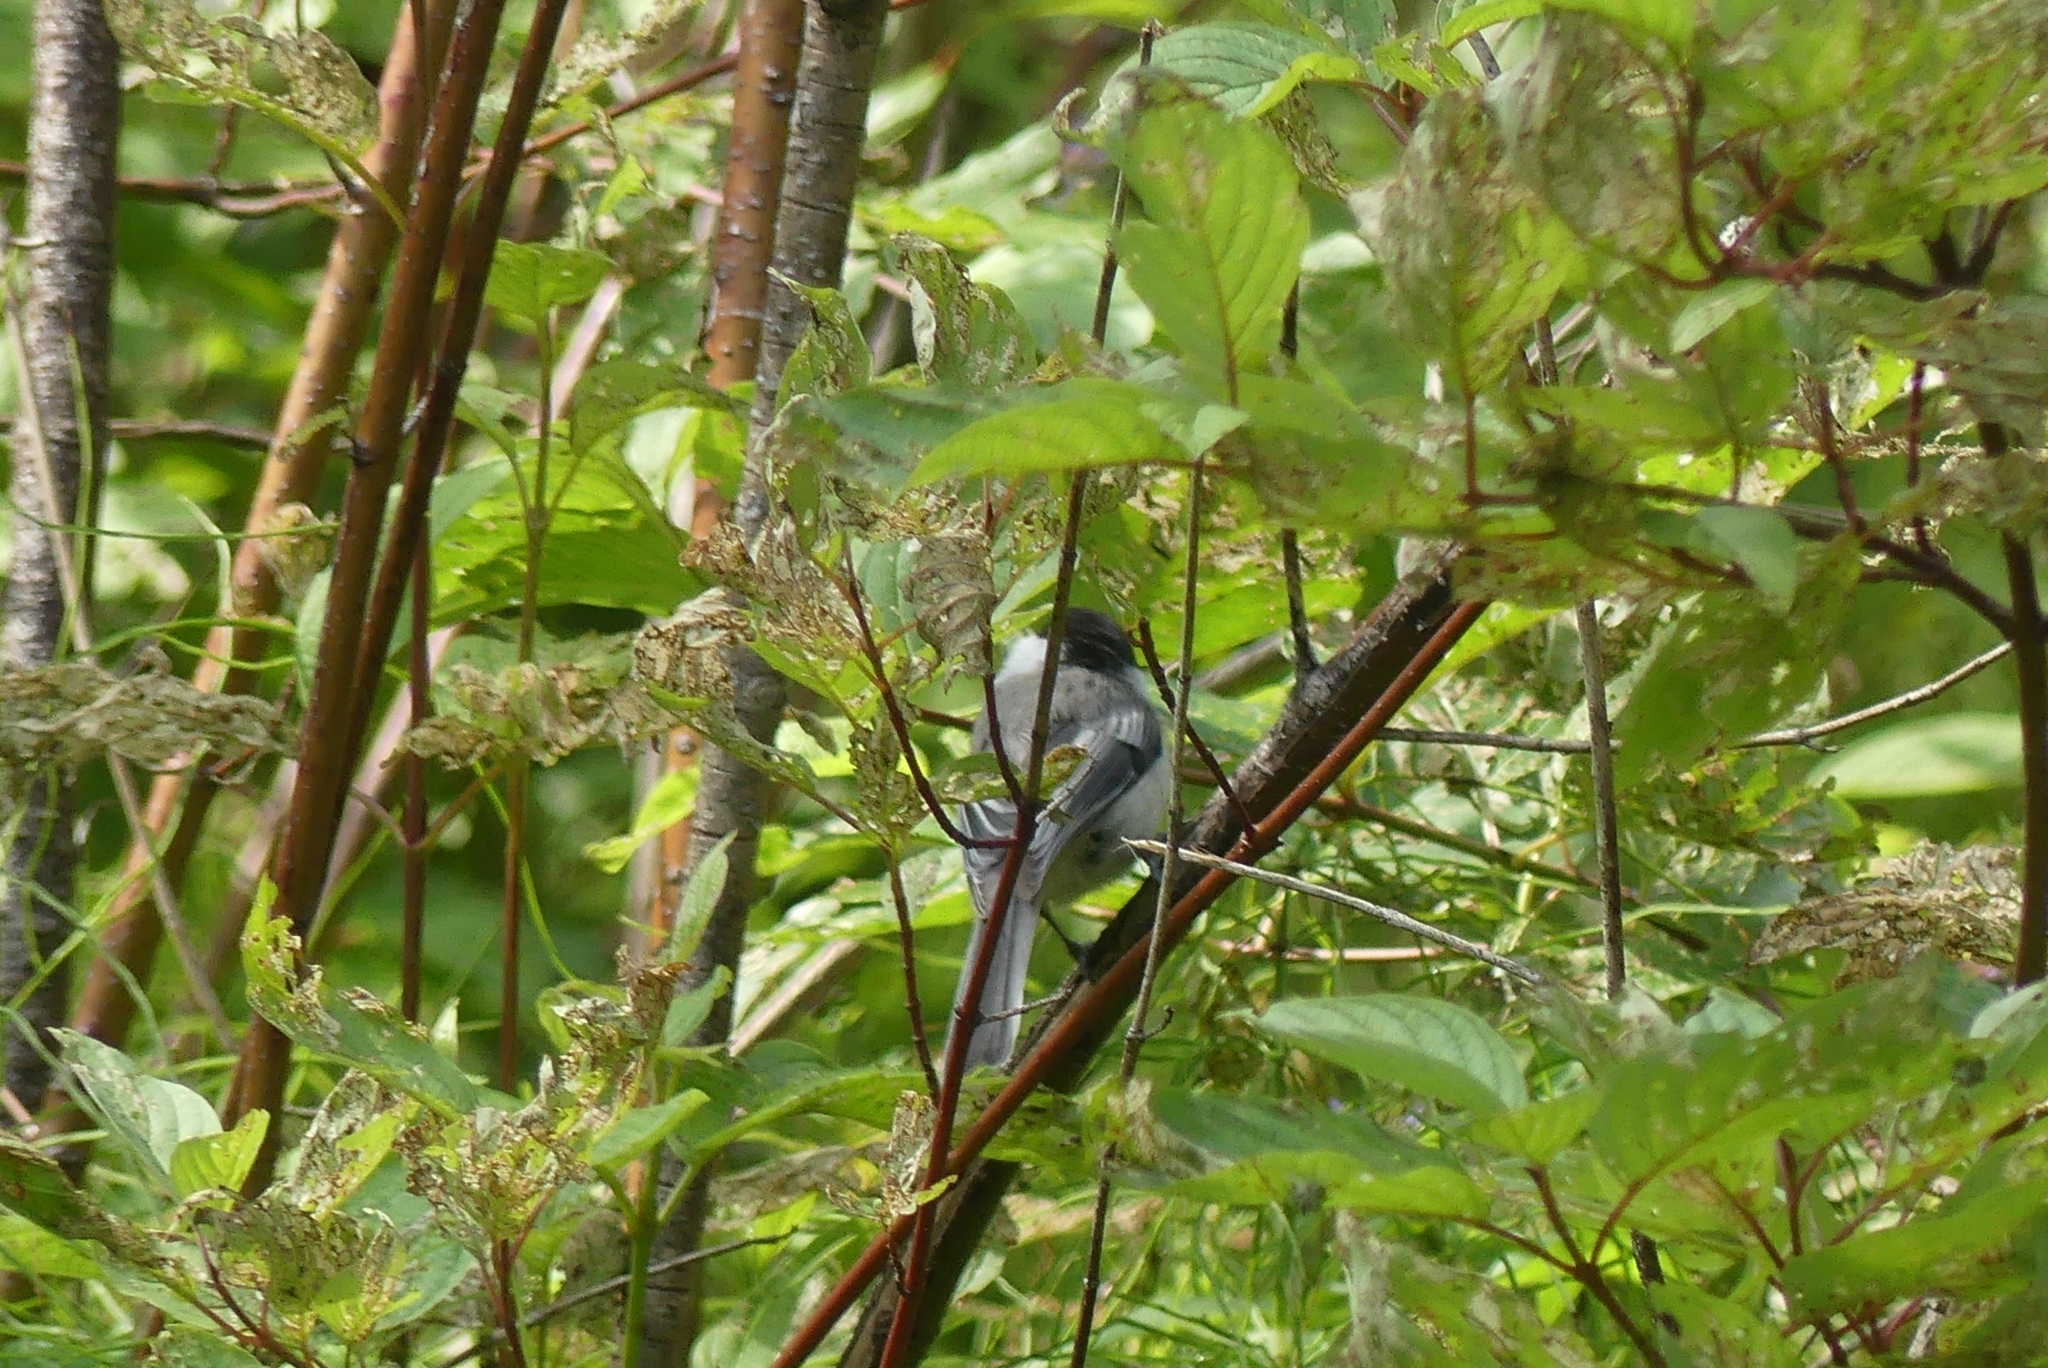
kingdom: Animalia
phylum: Chordata
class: Aves
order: Passeriformes
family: Paridae
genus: Poecile
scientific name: Poecile atricapillus
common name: Black-capped chickadee
